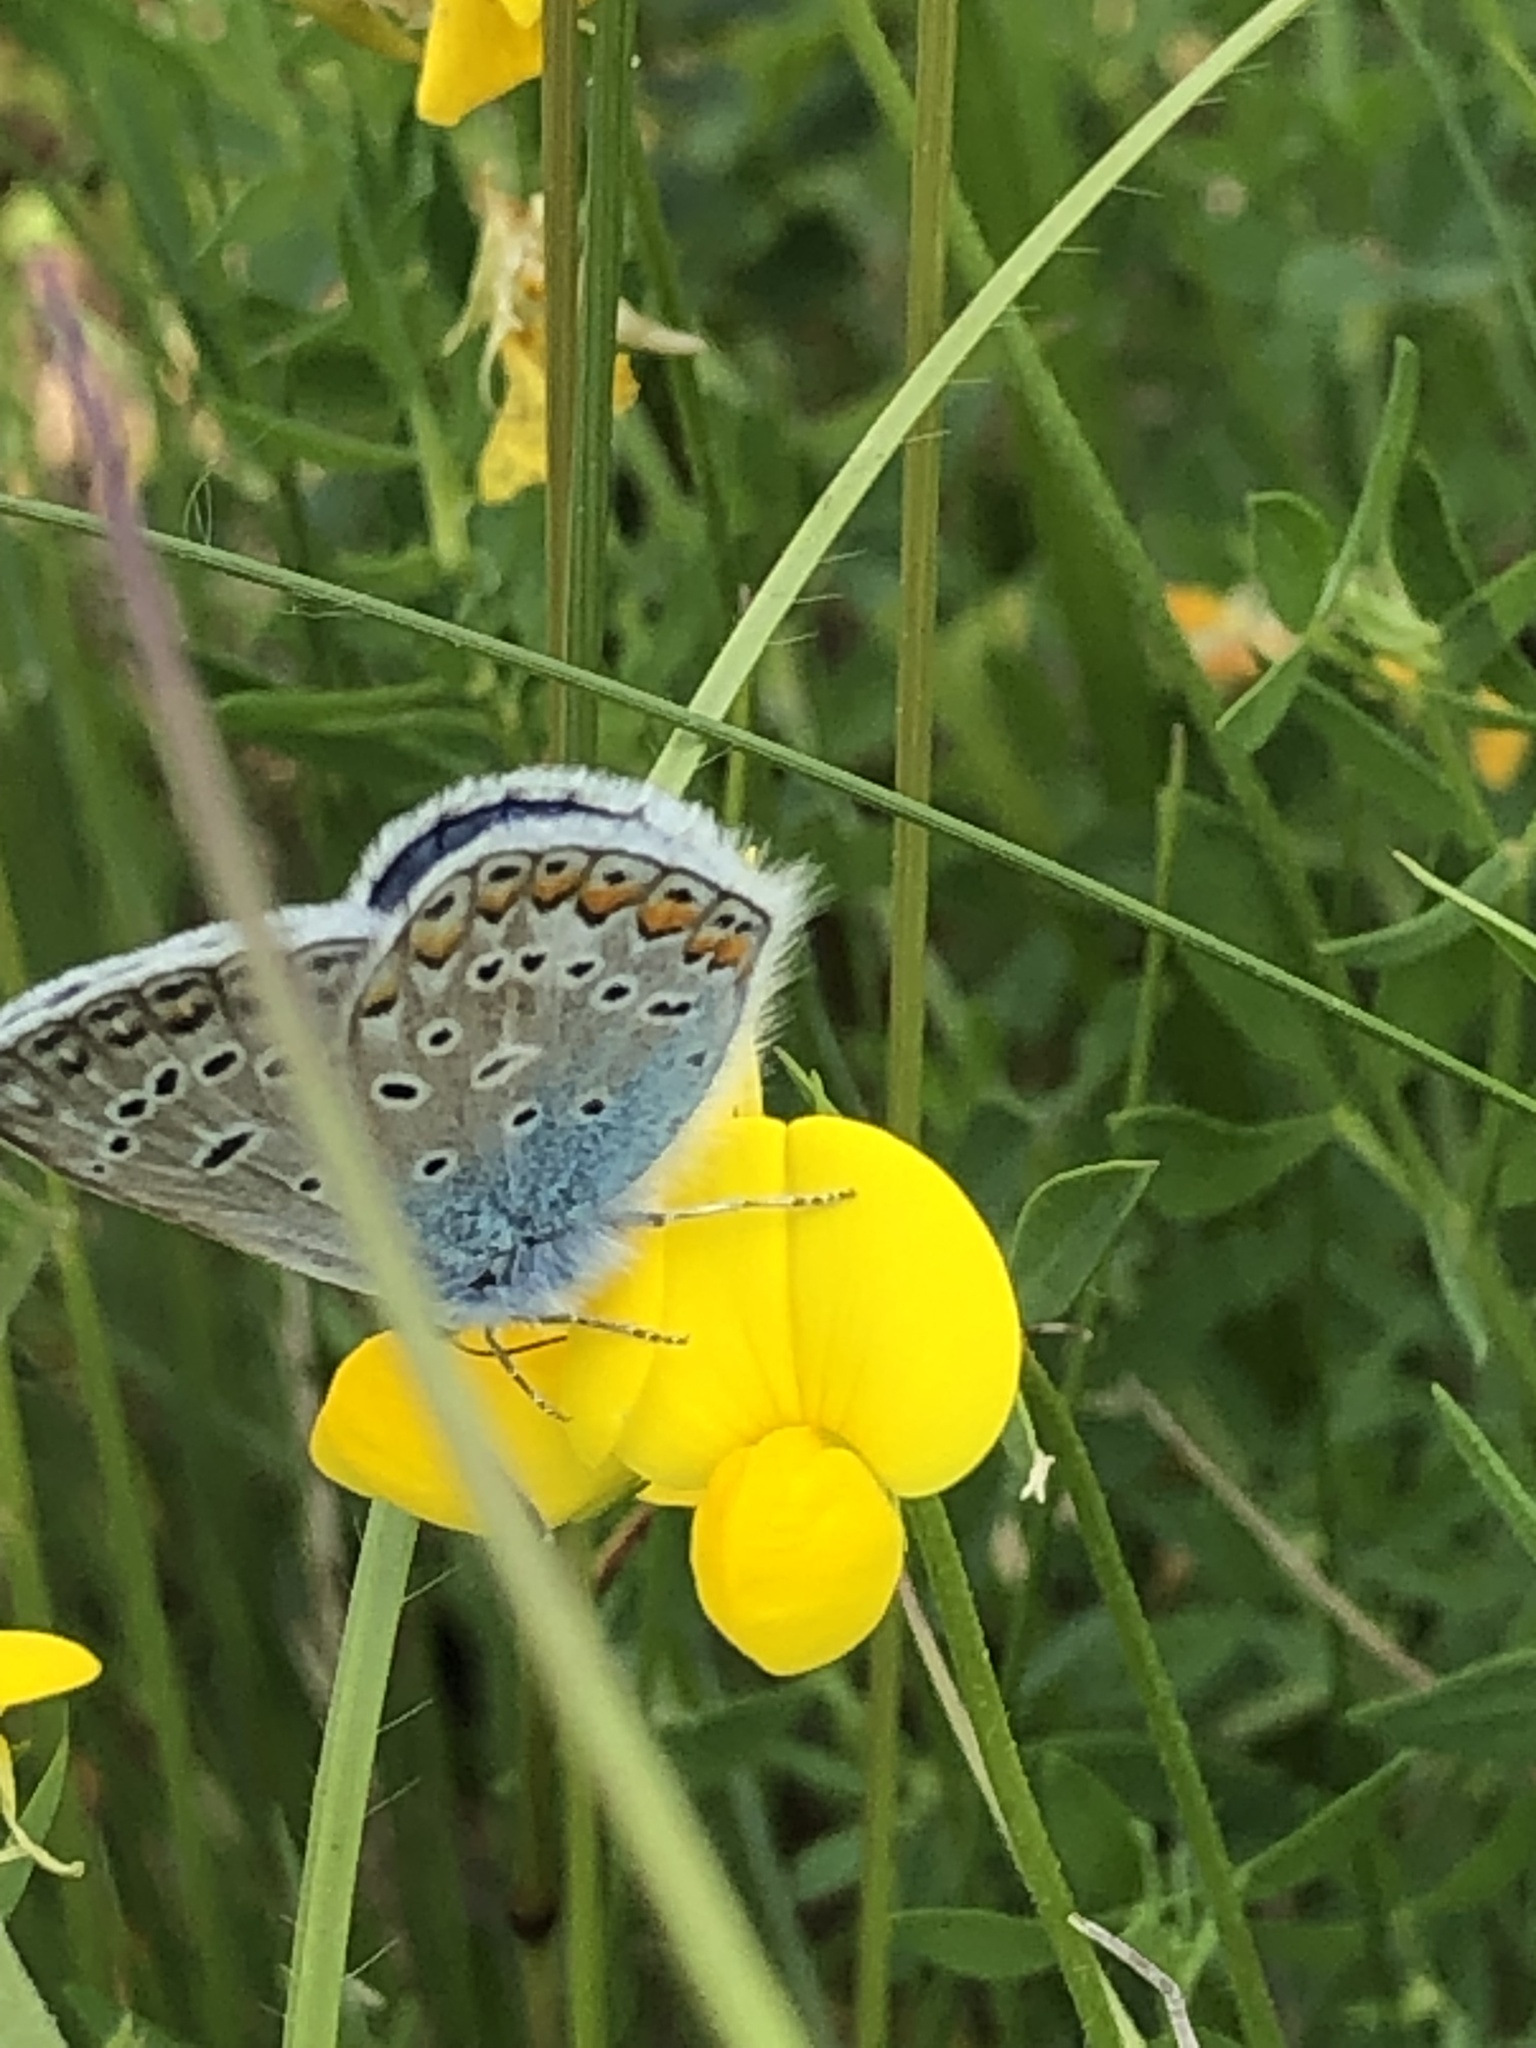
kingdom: Animalia
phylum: Arthropoda
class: Insecta
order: Lepidoptera
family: Lycaenidae
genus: Polyommatus
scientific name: Polyommatus icarus
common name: Common blue
